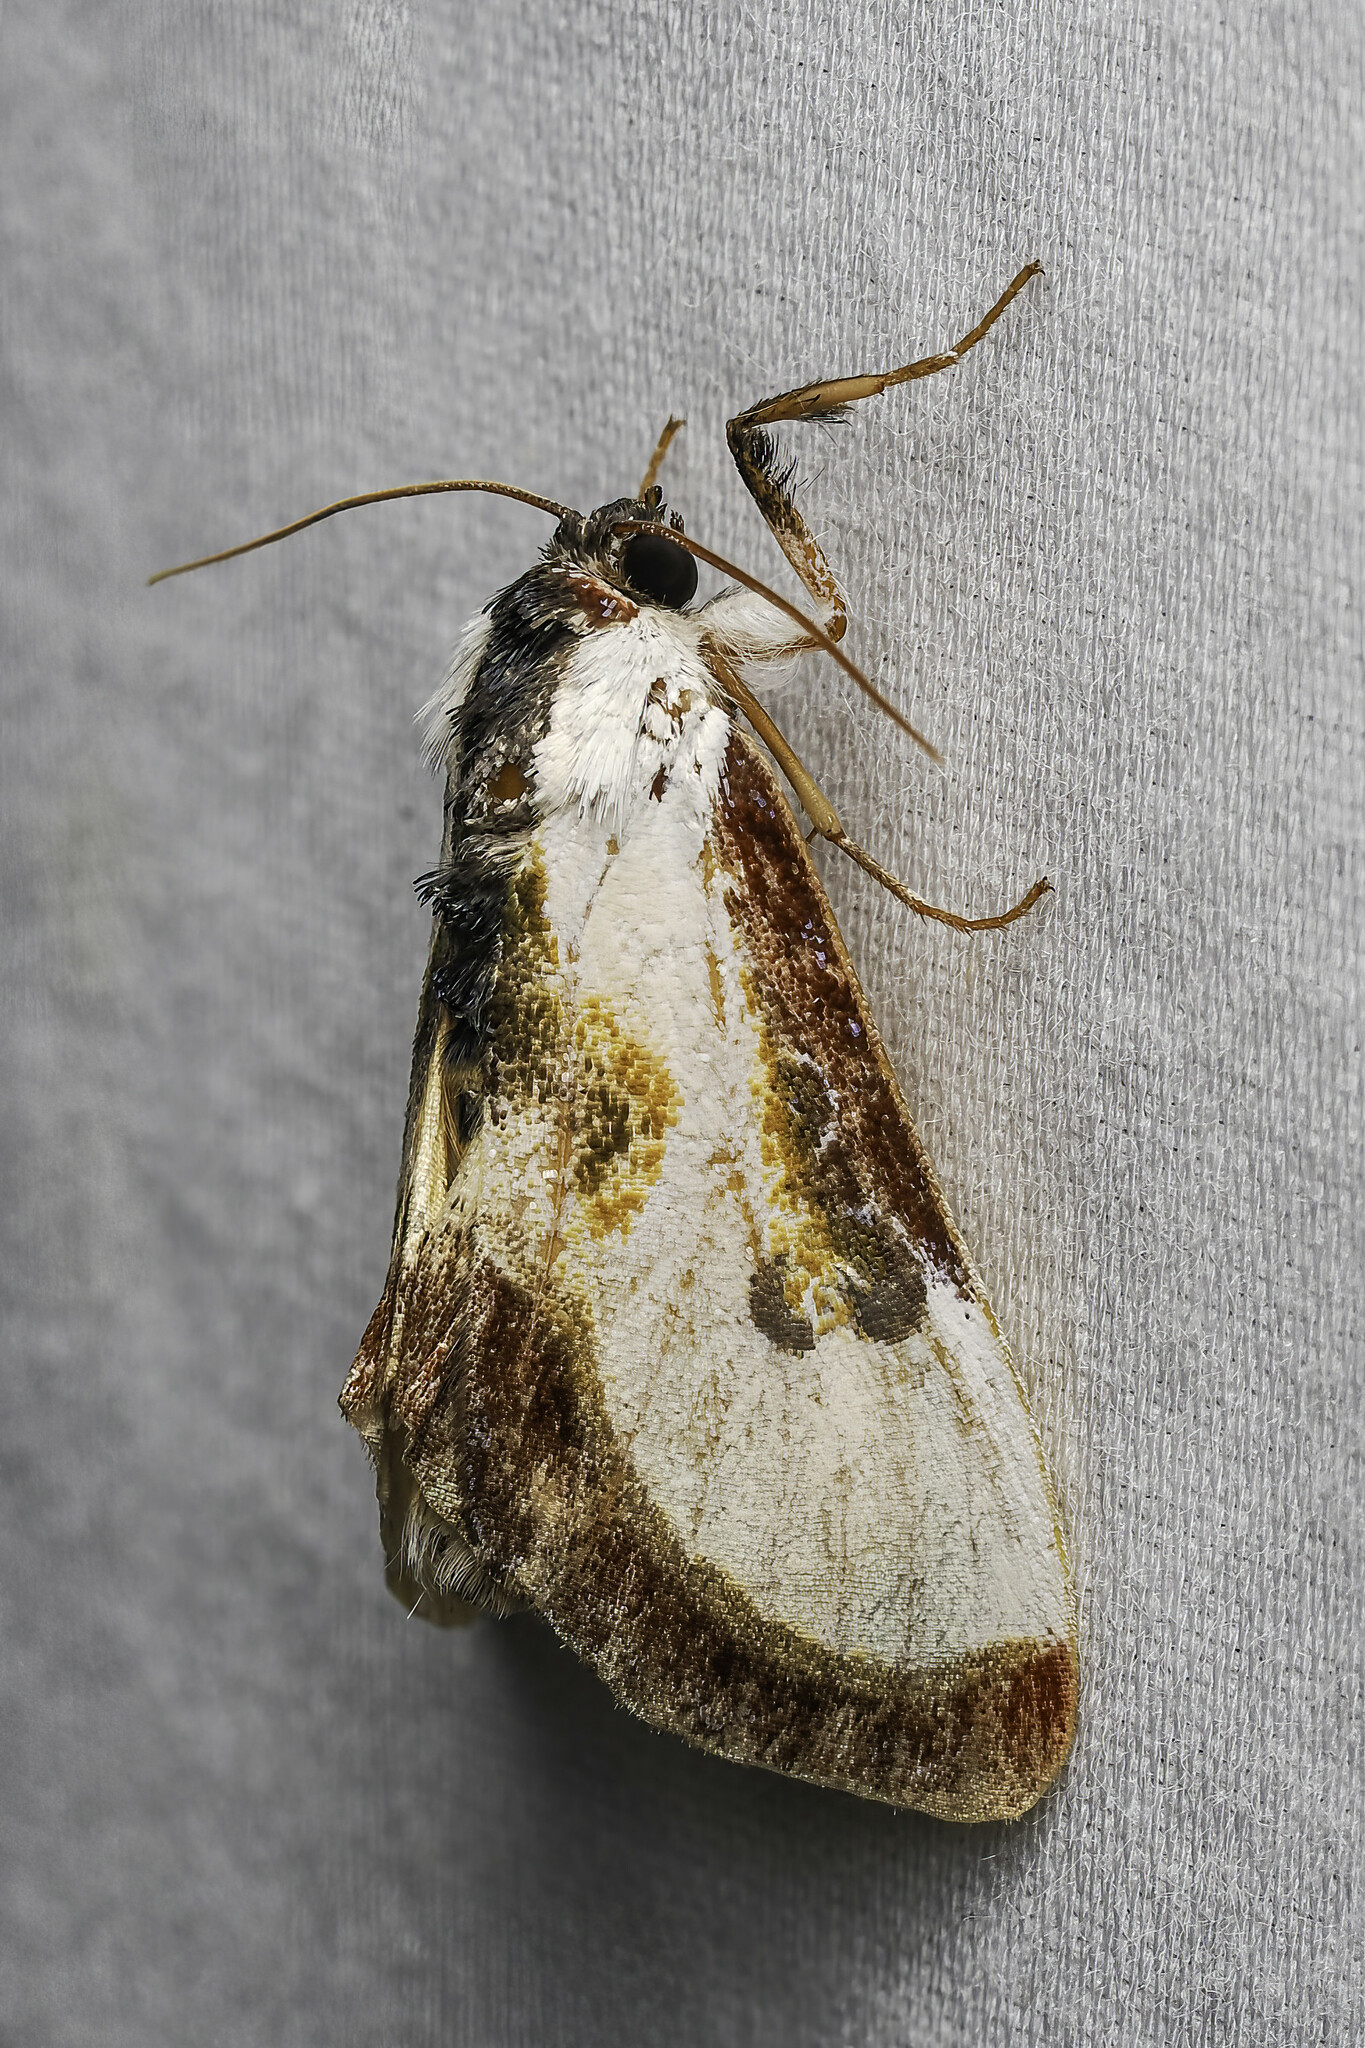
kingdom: Animalia
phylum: Arthropoda
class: Insecta
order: Lepidoptera
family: Noctuidae
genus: Eudryas
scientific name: Eudryas grata
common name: Beautiful wood-nymph
